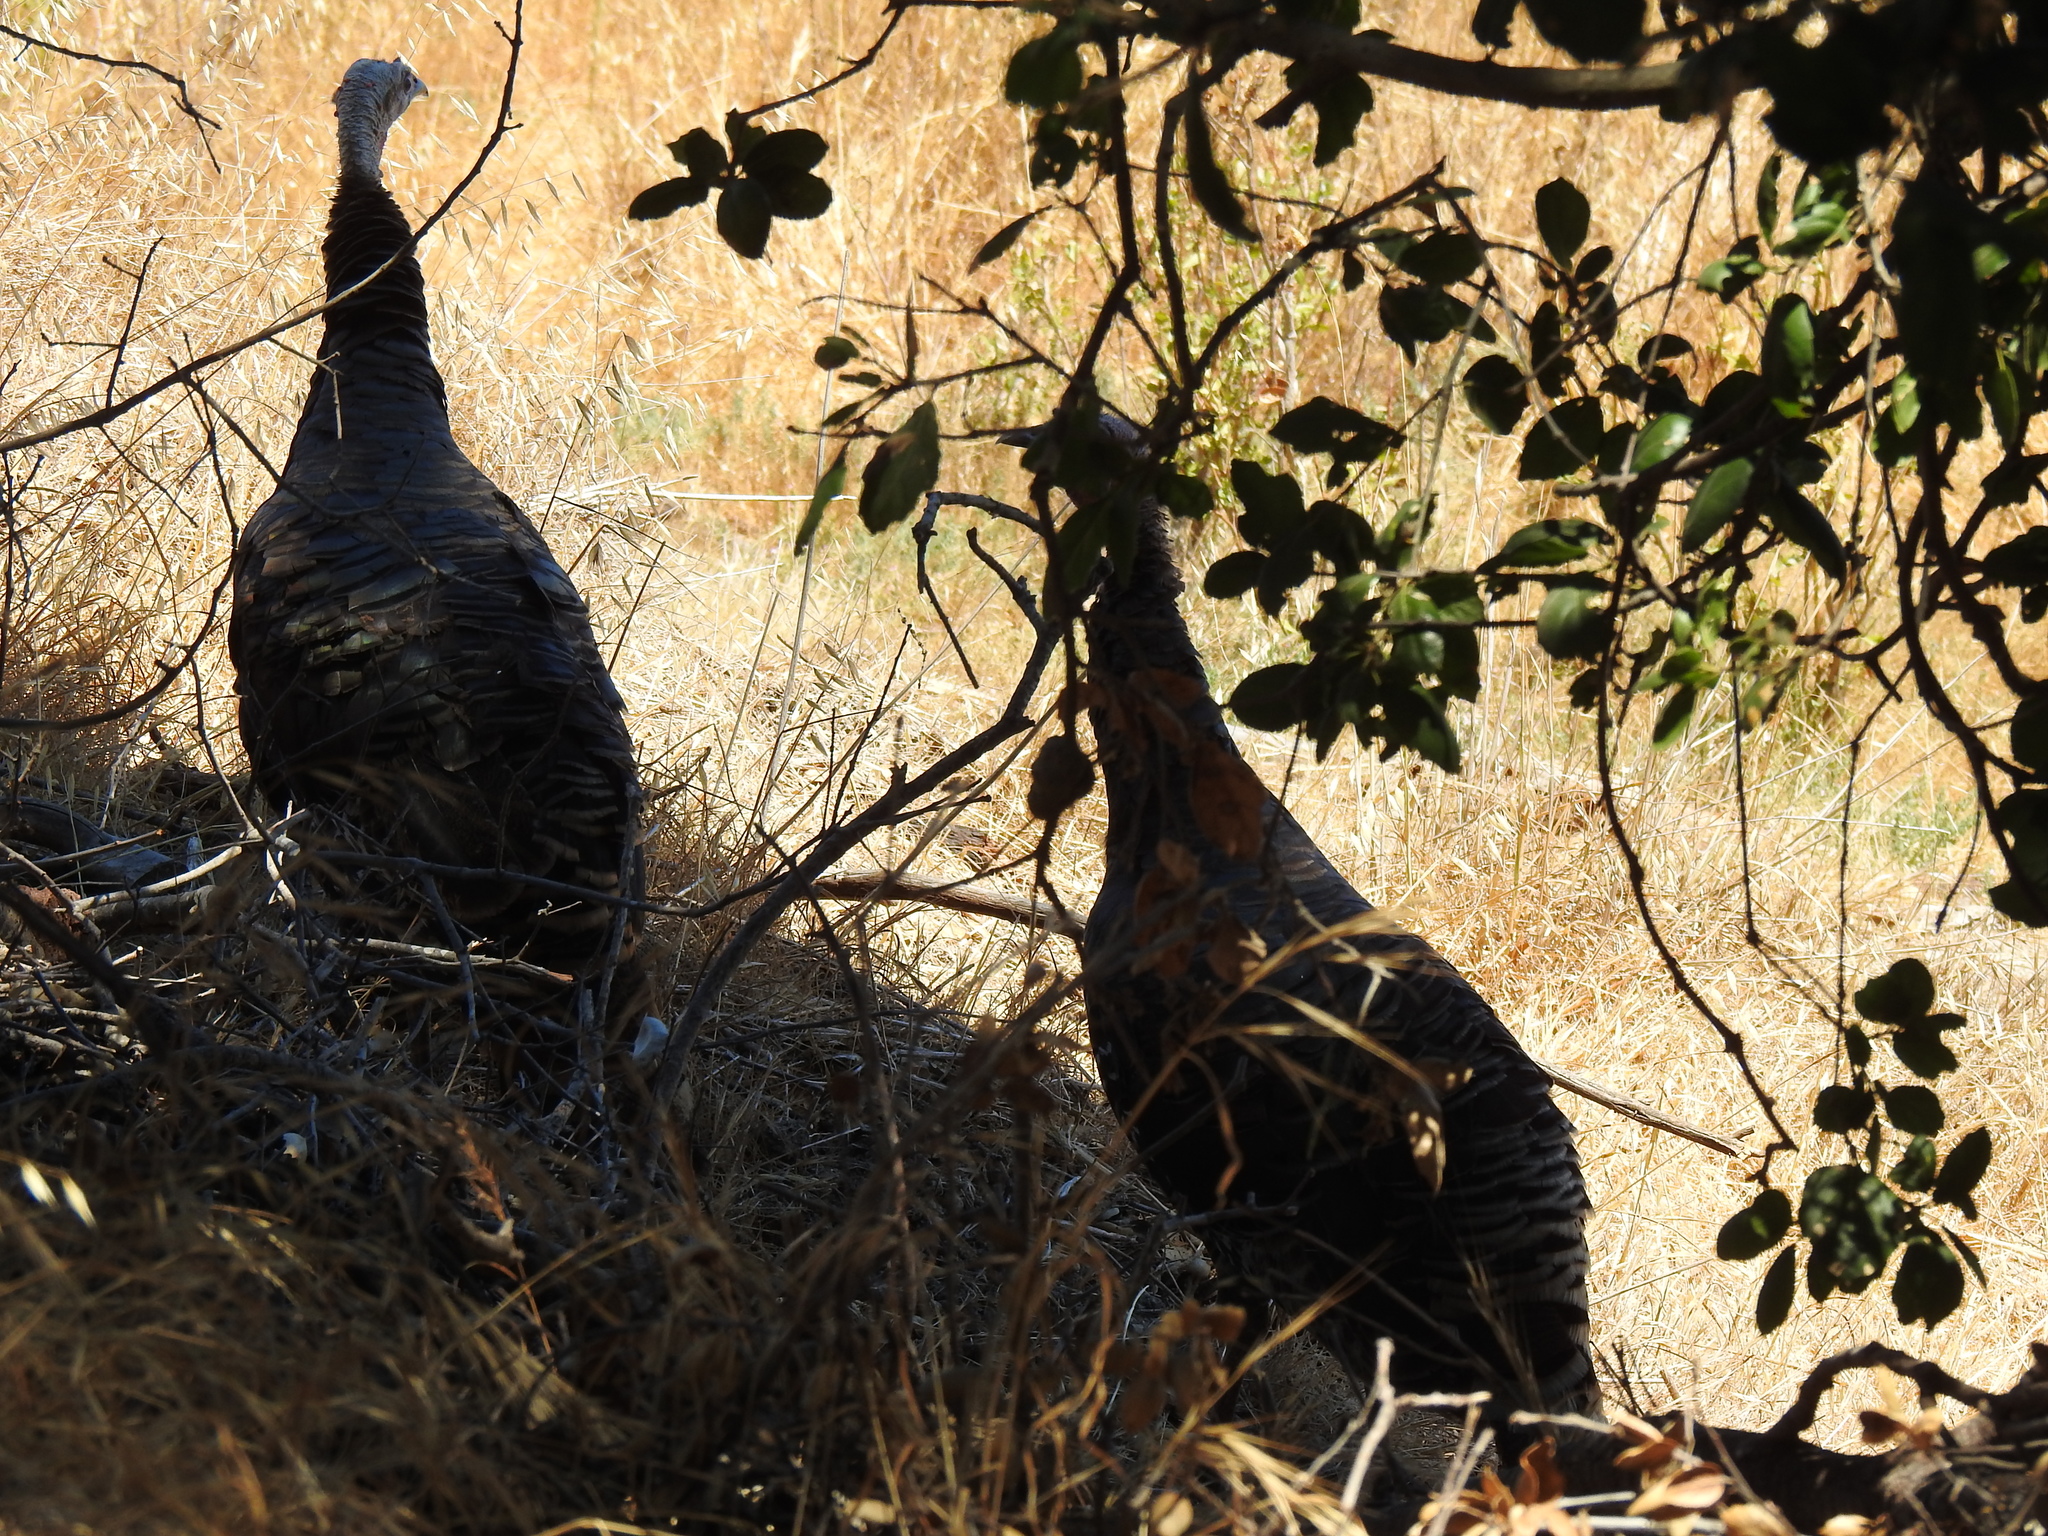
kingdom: Animalia
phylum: Chordata
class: Aves
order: Galliformes
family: Phasianidae
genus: Meleagris
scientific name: Meleagris gallopavo
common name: Wild turkey
